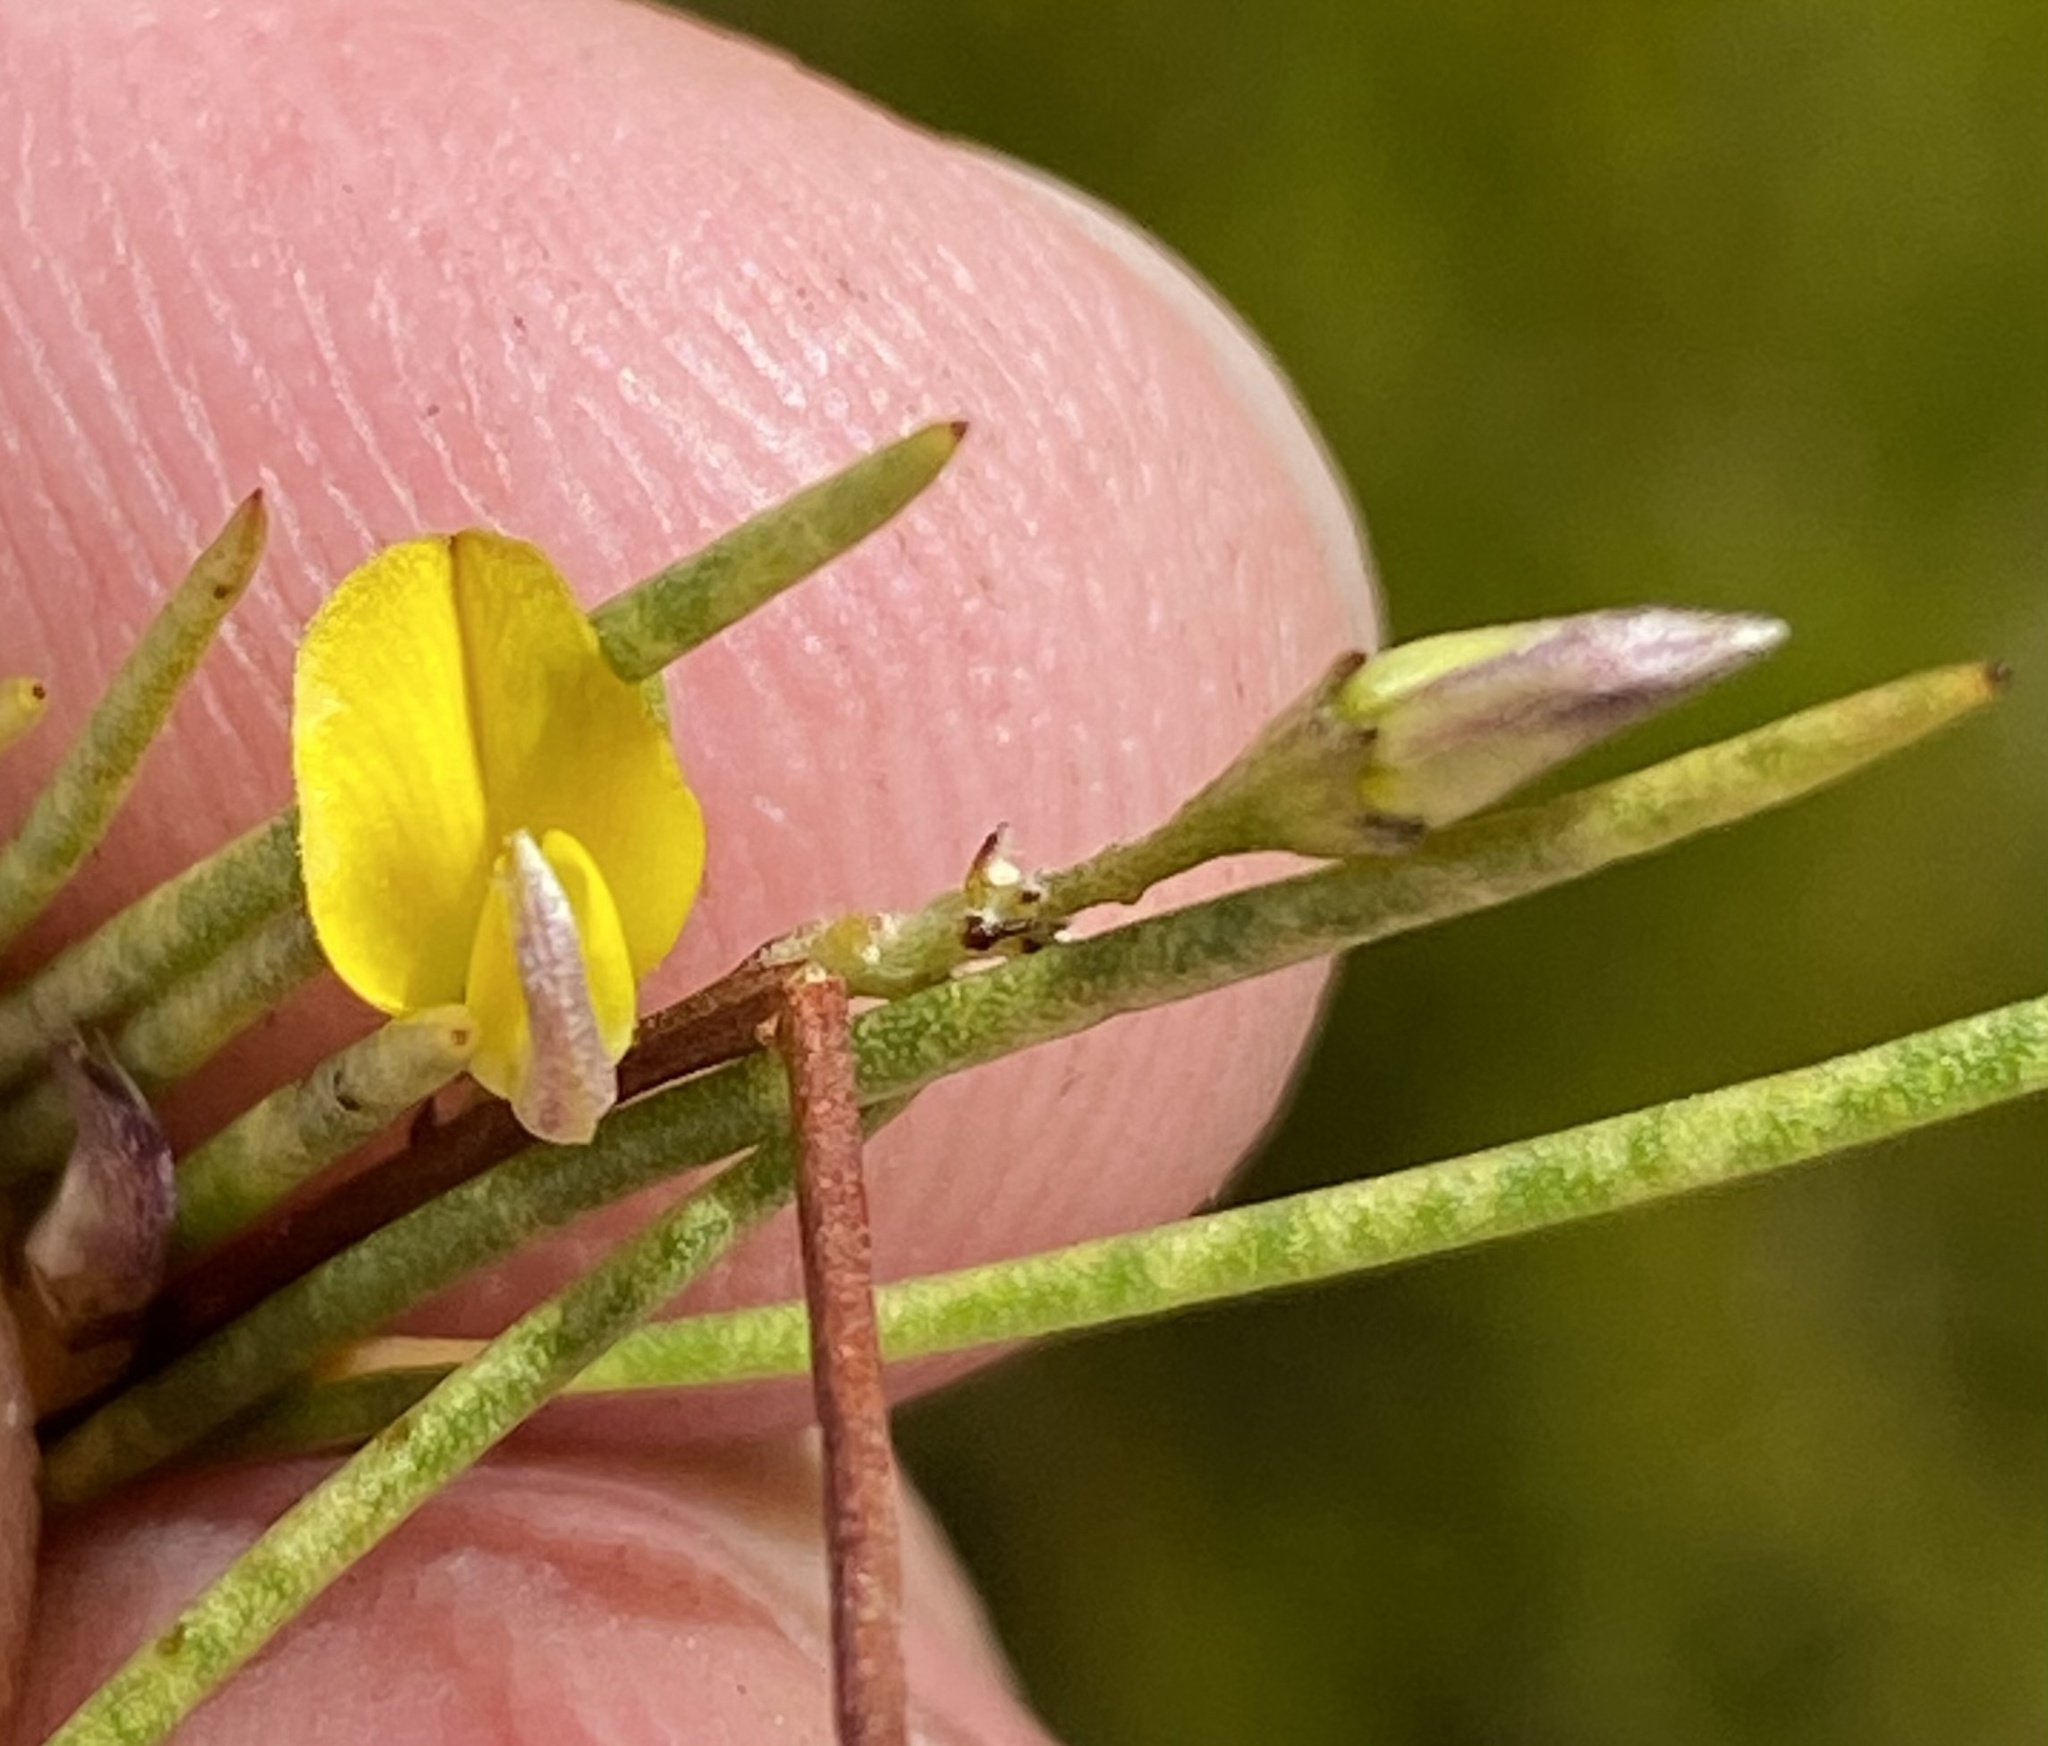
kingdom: Plantae
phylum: Tracheophyta
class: Magnoliopsida
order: Fabales
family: Fabaceae
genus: Aspalathus
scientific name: Aspalathus lebeckioides
